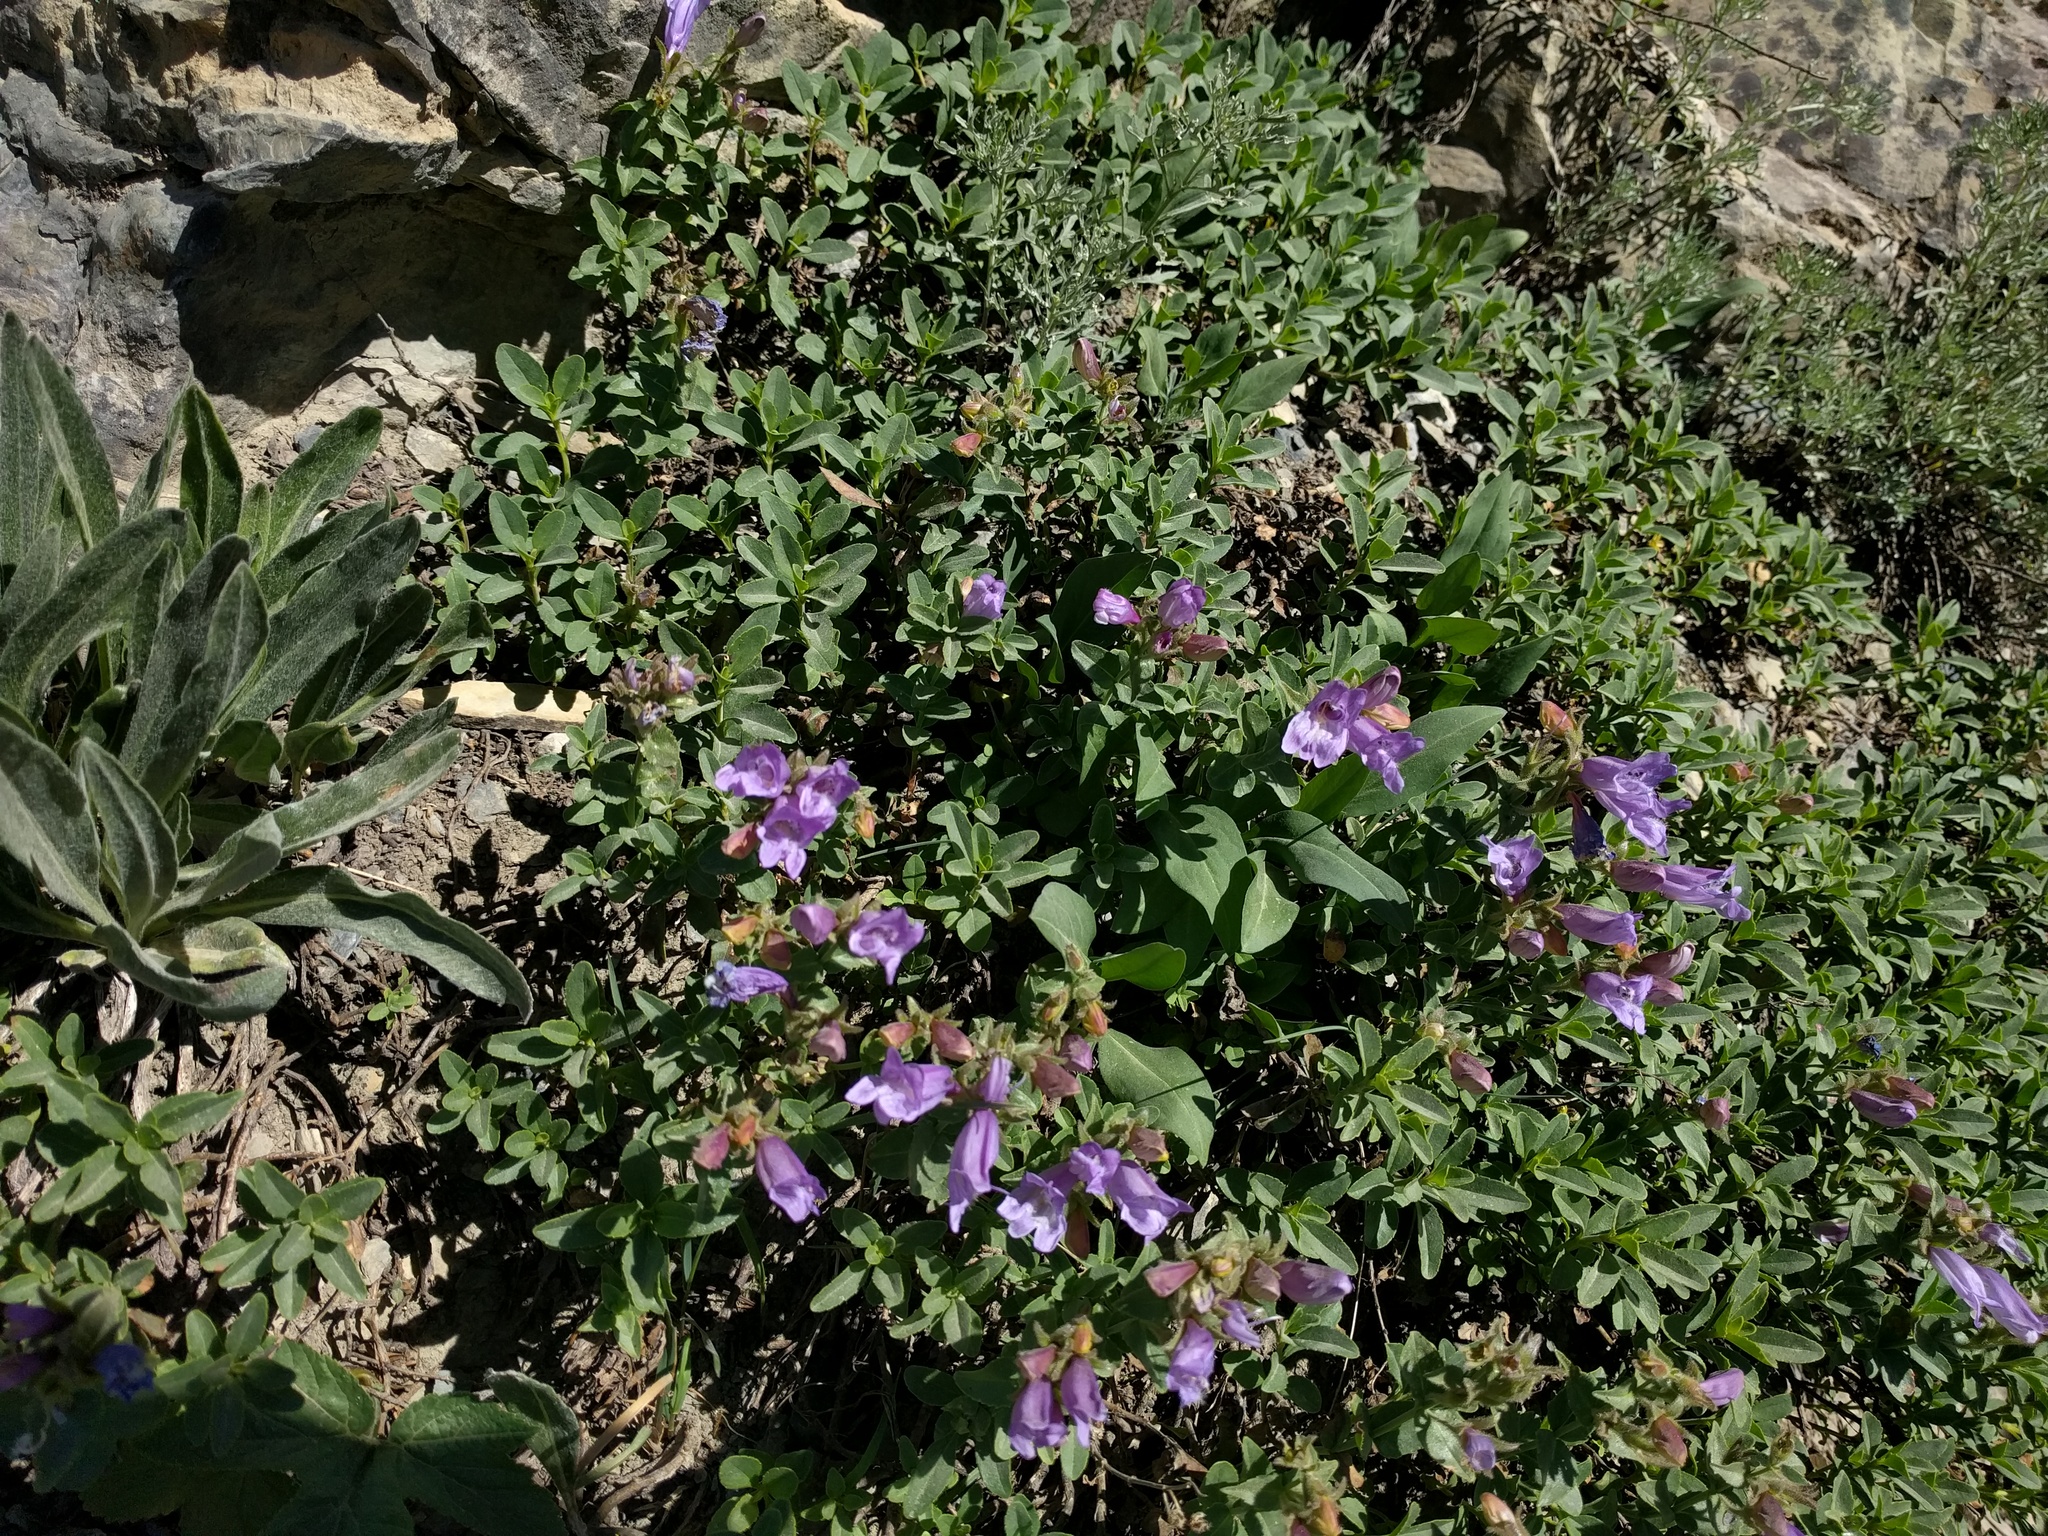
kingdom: Plantae
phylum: Tracheophyta
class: Magnoliopsida
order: Lamiales
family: Plantaginaceae
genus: Penstemon
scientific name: Penstemon ellipticus
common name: Alpine beardtongue
